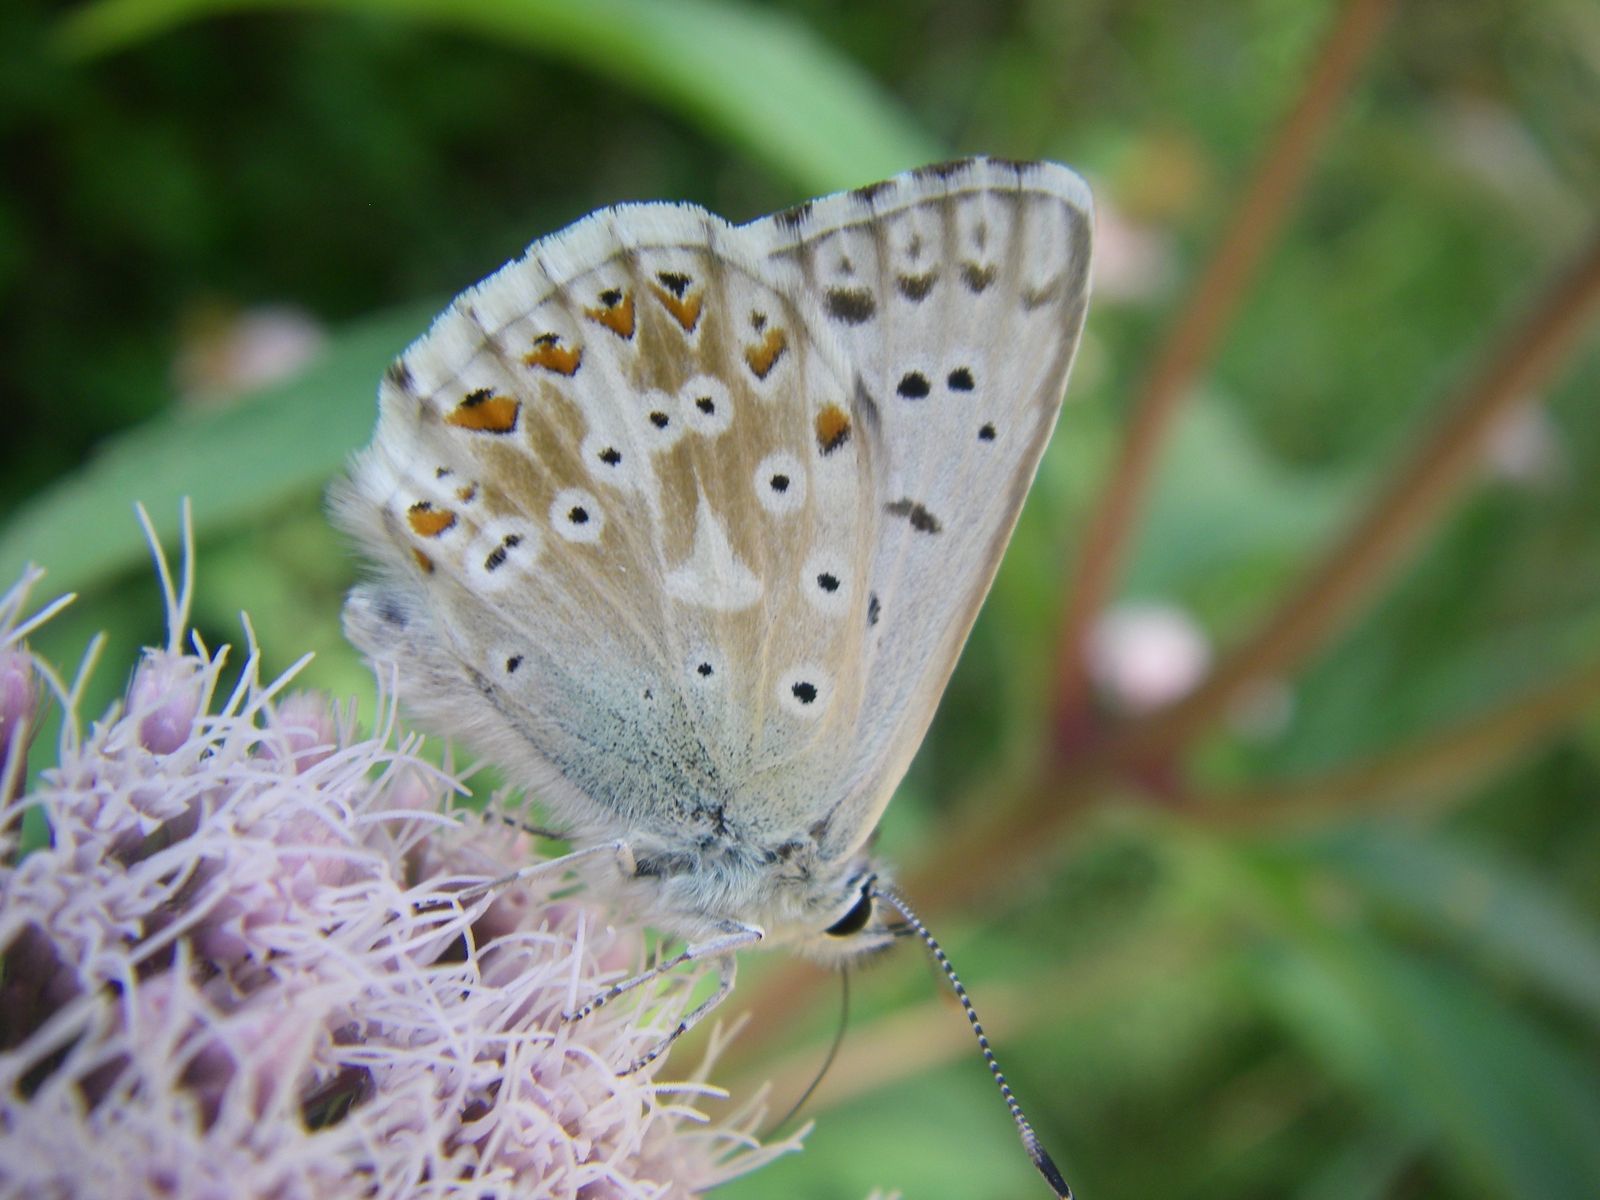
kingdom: Animalia
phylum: Arthropoda
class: Insecta
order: Lepidoptera
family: Lycaenidae
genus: Lysandra
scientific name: Lysandra coridon
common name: Chalkhill blue
